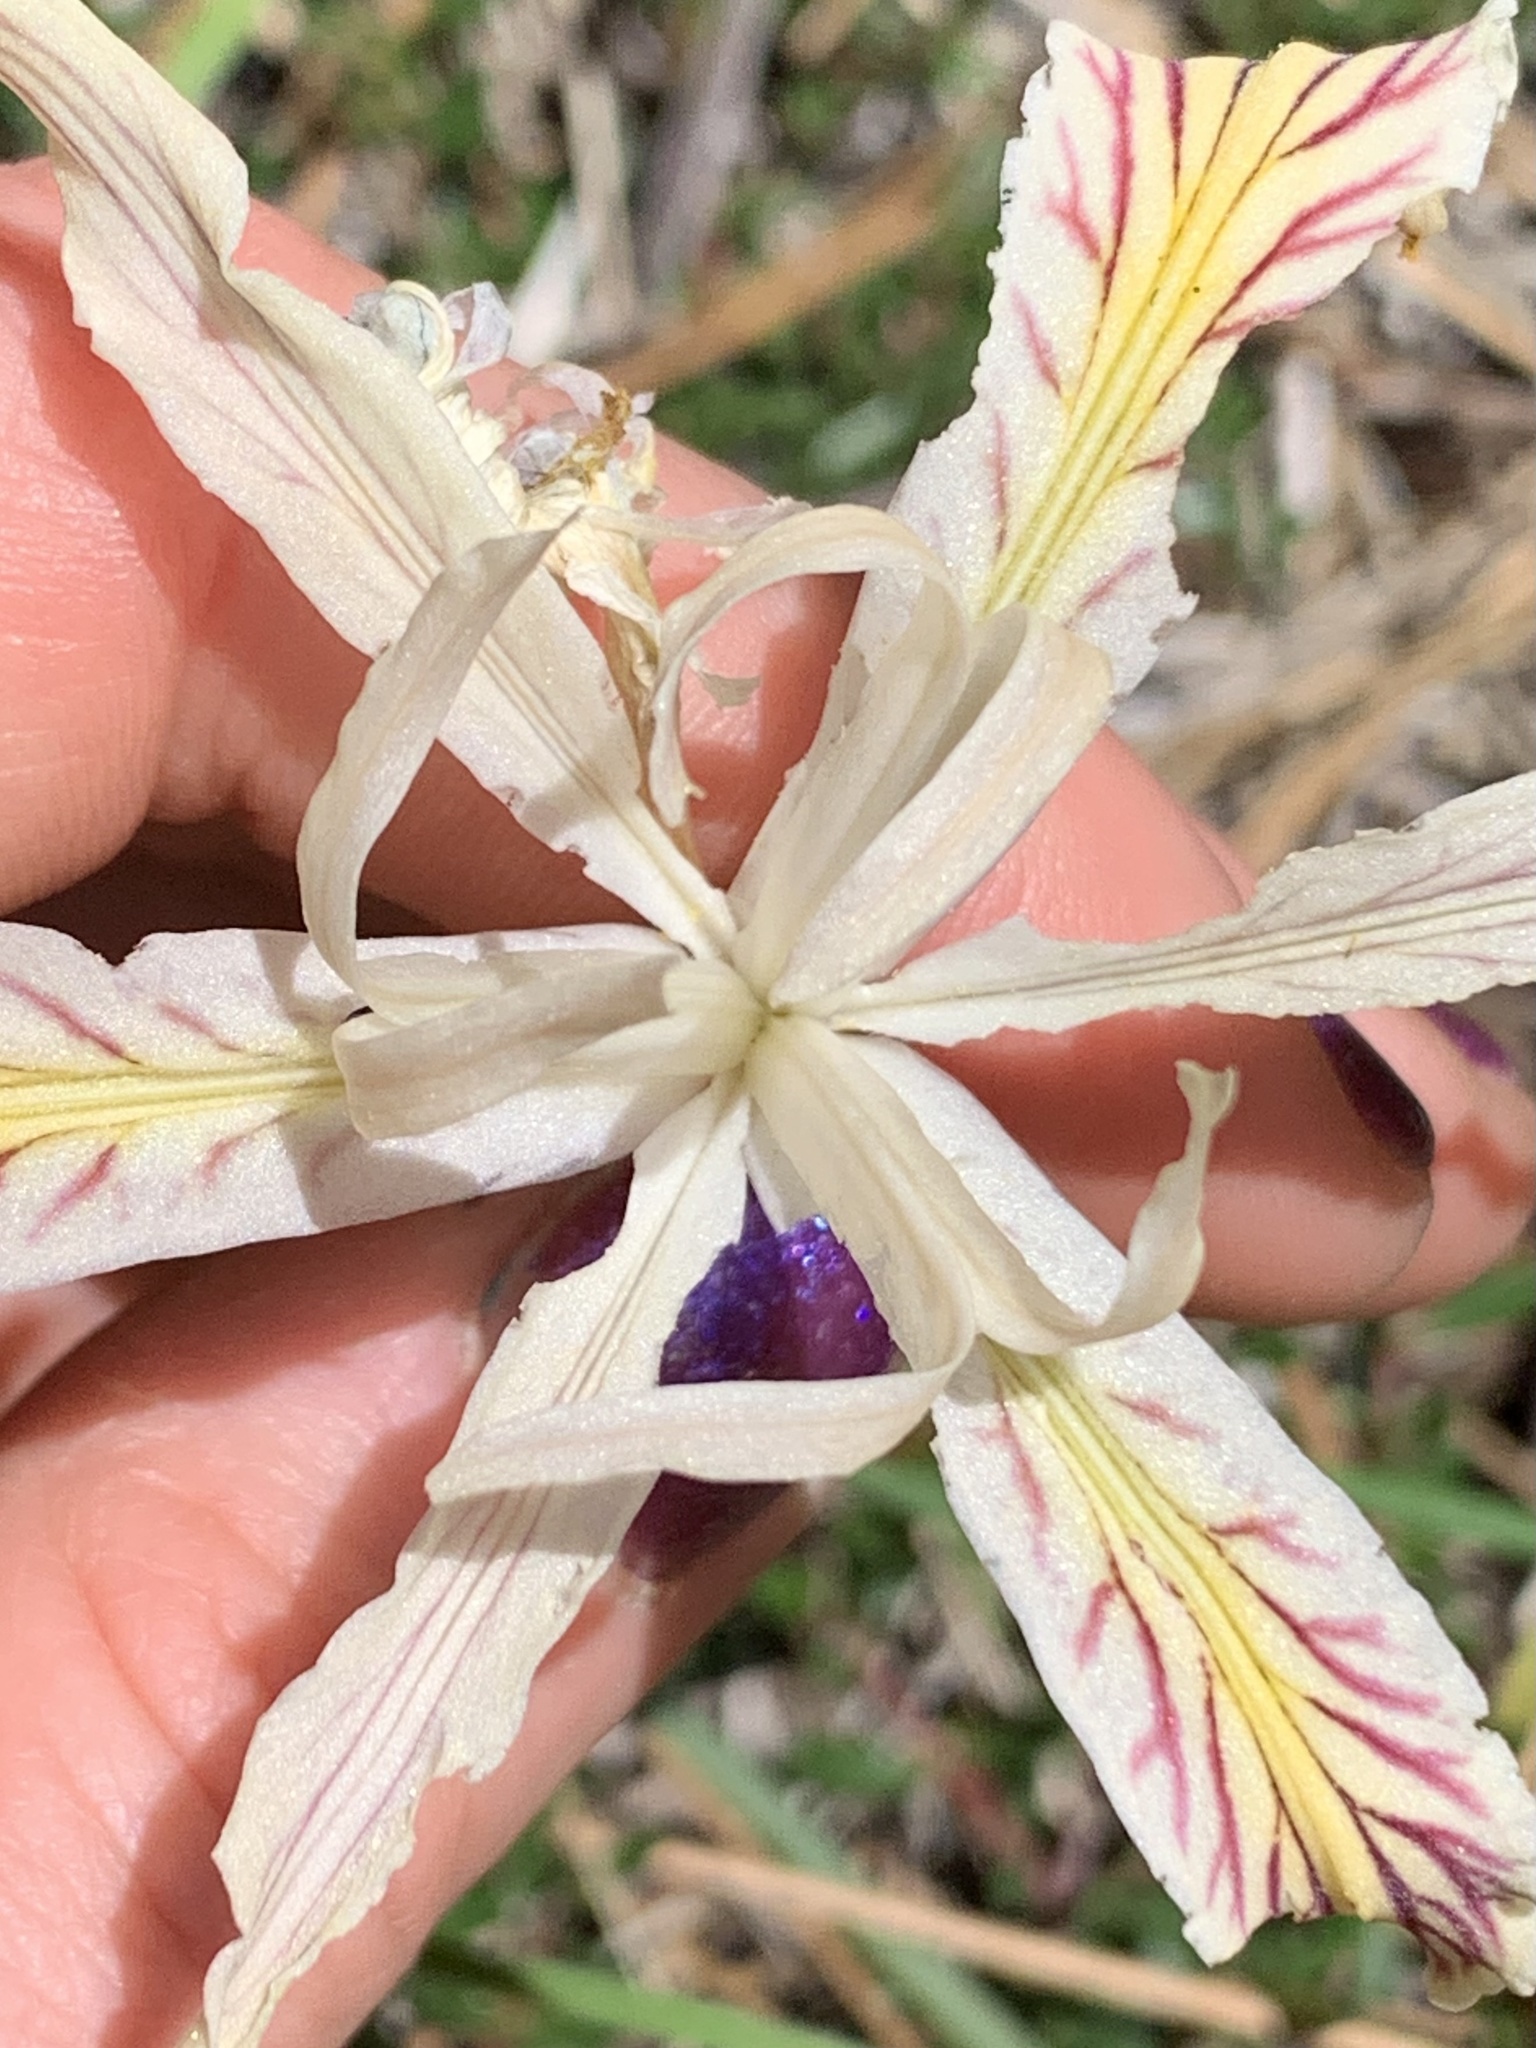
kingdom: Plantae
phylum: Tracheophyta
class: Liliopsida
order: Asparagales
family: Iridaceae
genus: Iris
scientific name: Iris chrysophylla
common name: Yellow-leaf iris
